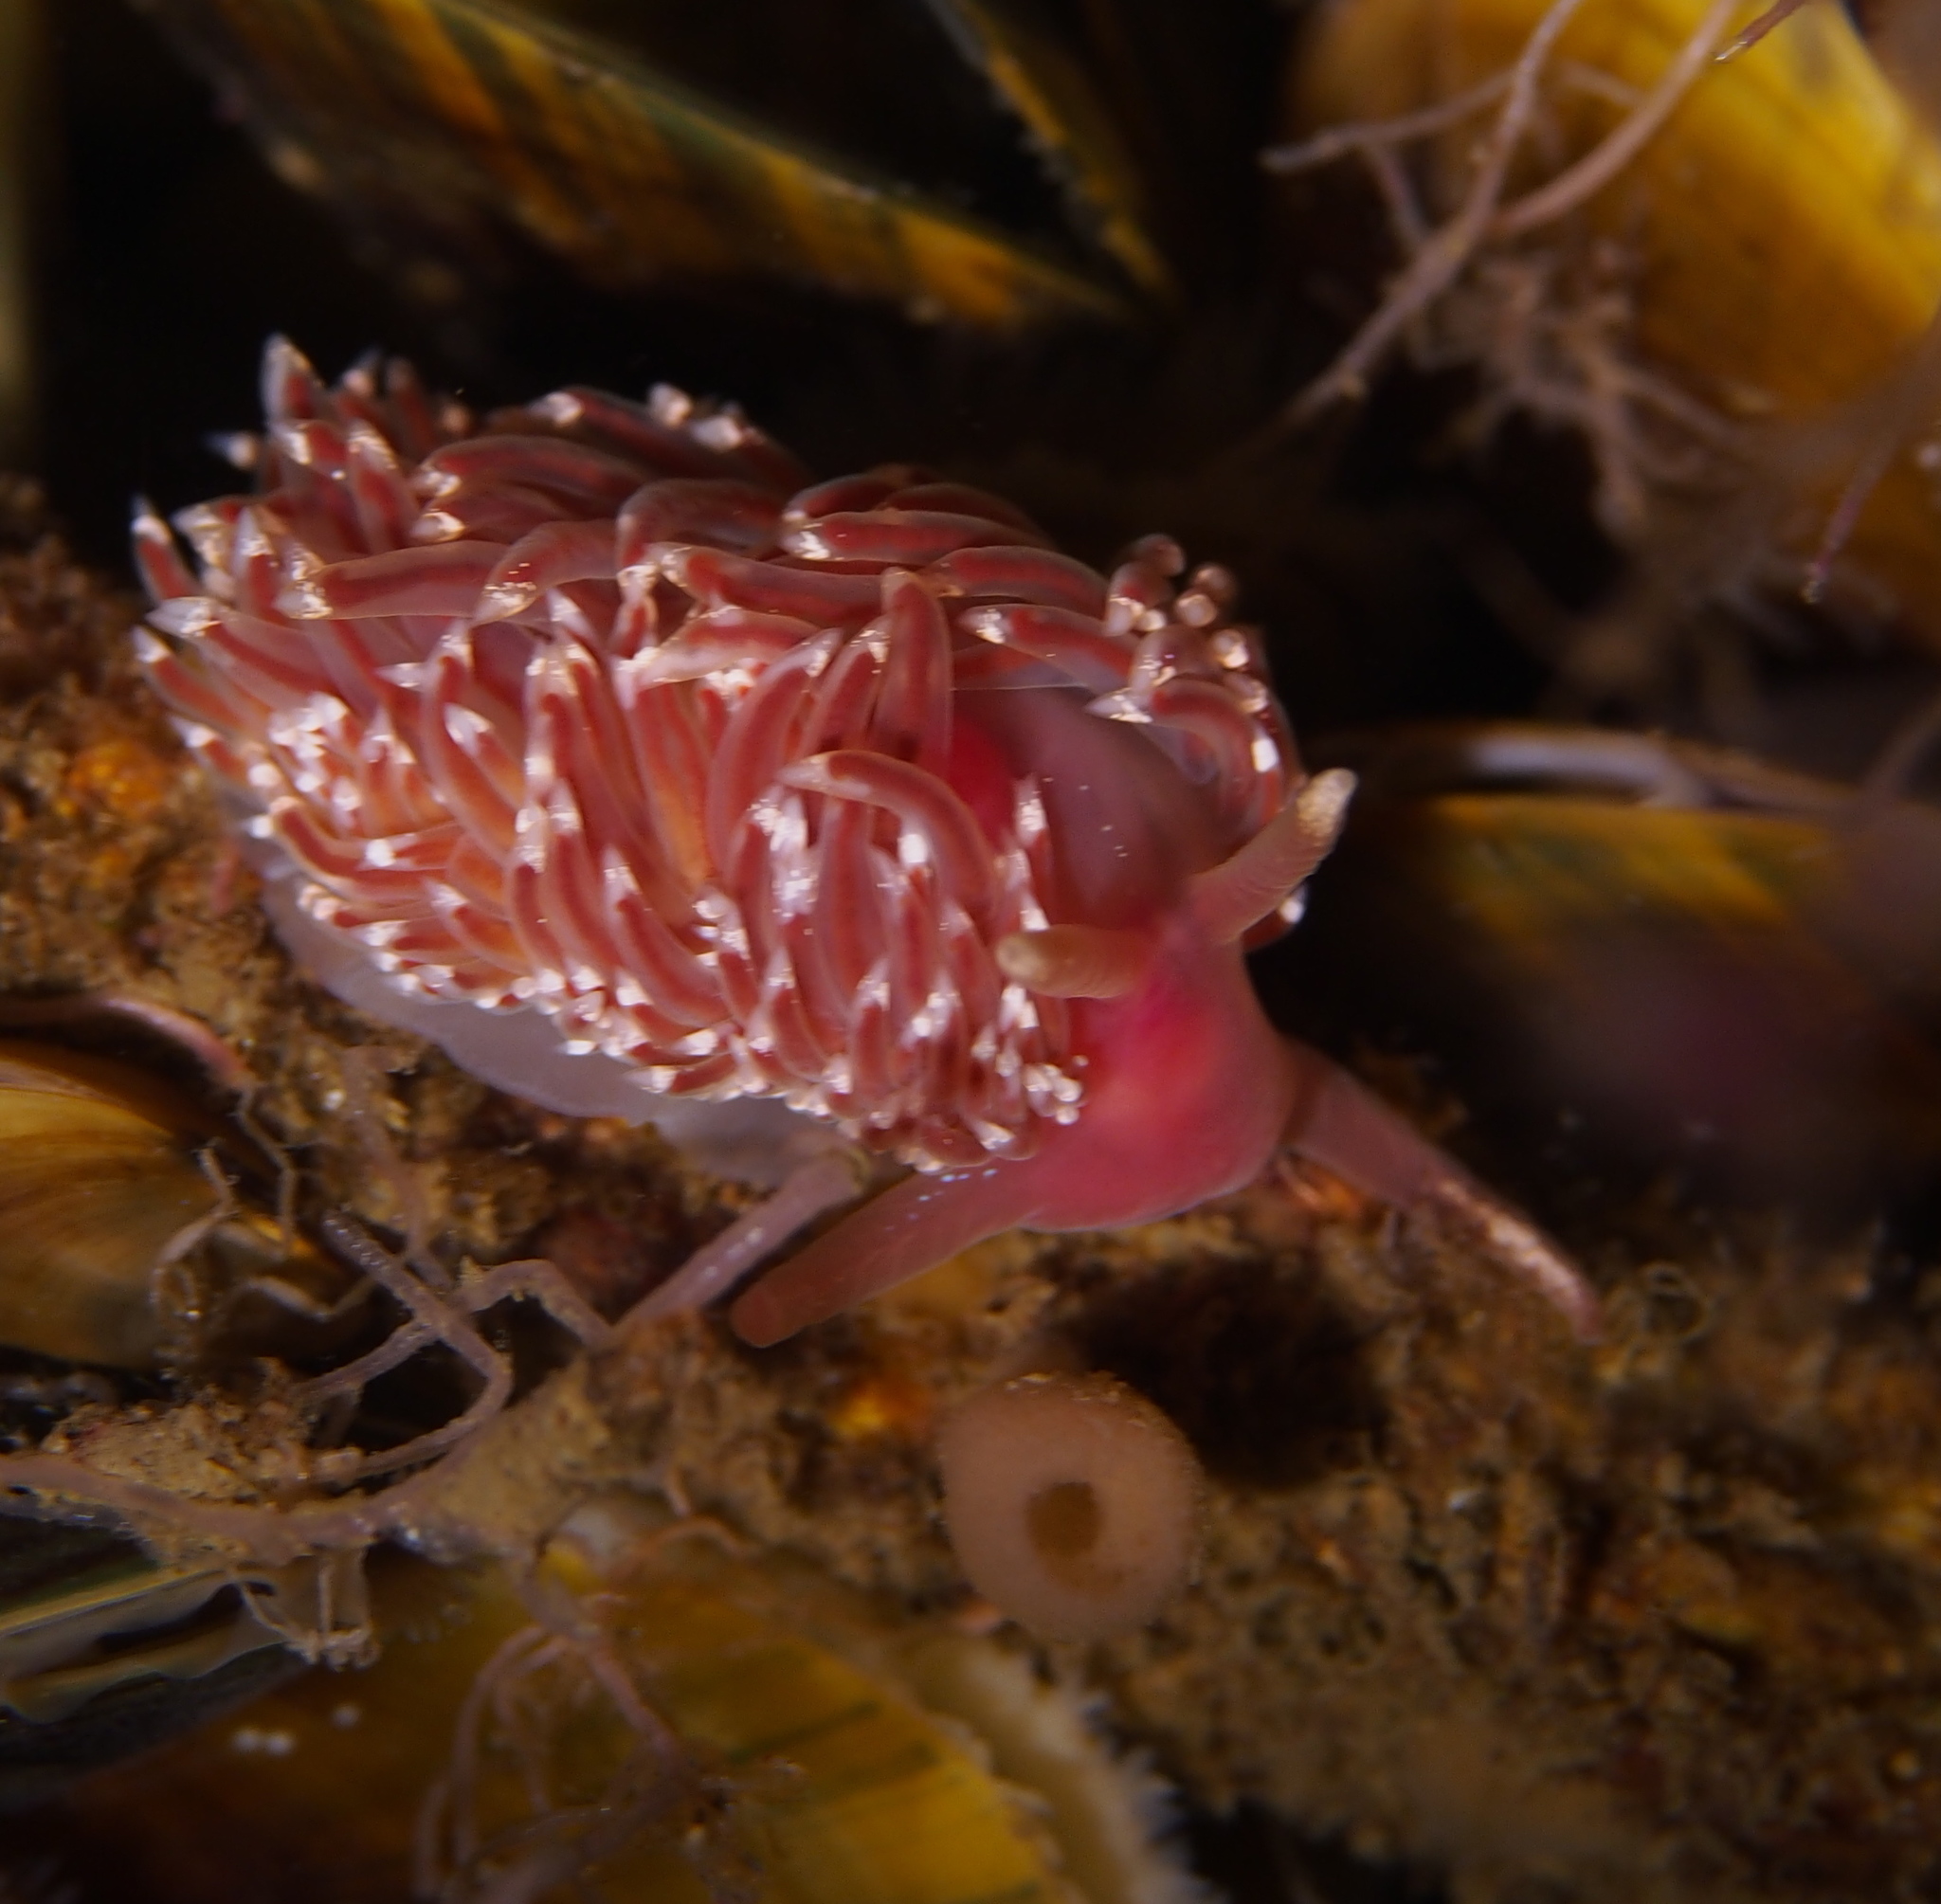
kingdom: Animalia
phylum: Mollusca
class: Gastropoda
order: Nudibranchia
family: Facelinidae
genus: Facelina
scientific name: Facelina bostoniensis
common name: Boston facelina
